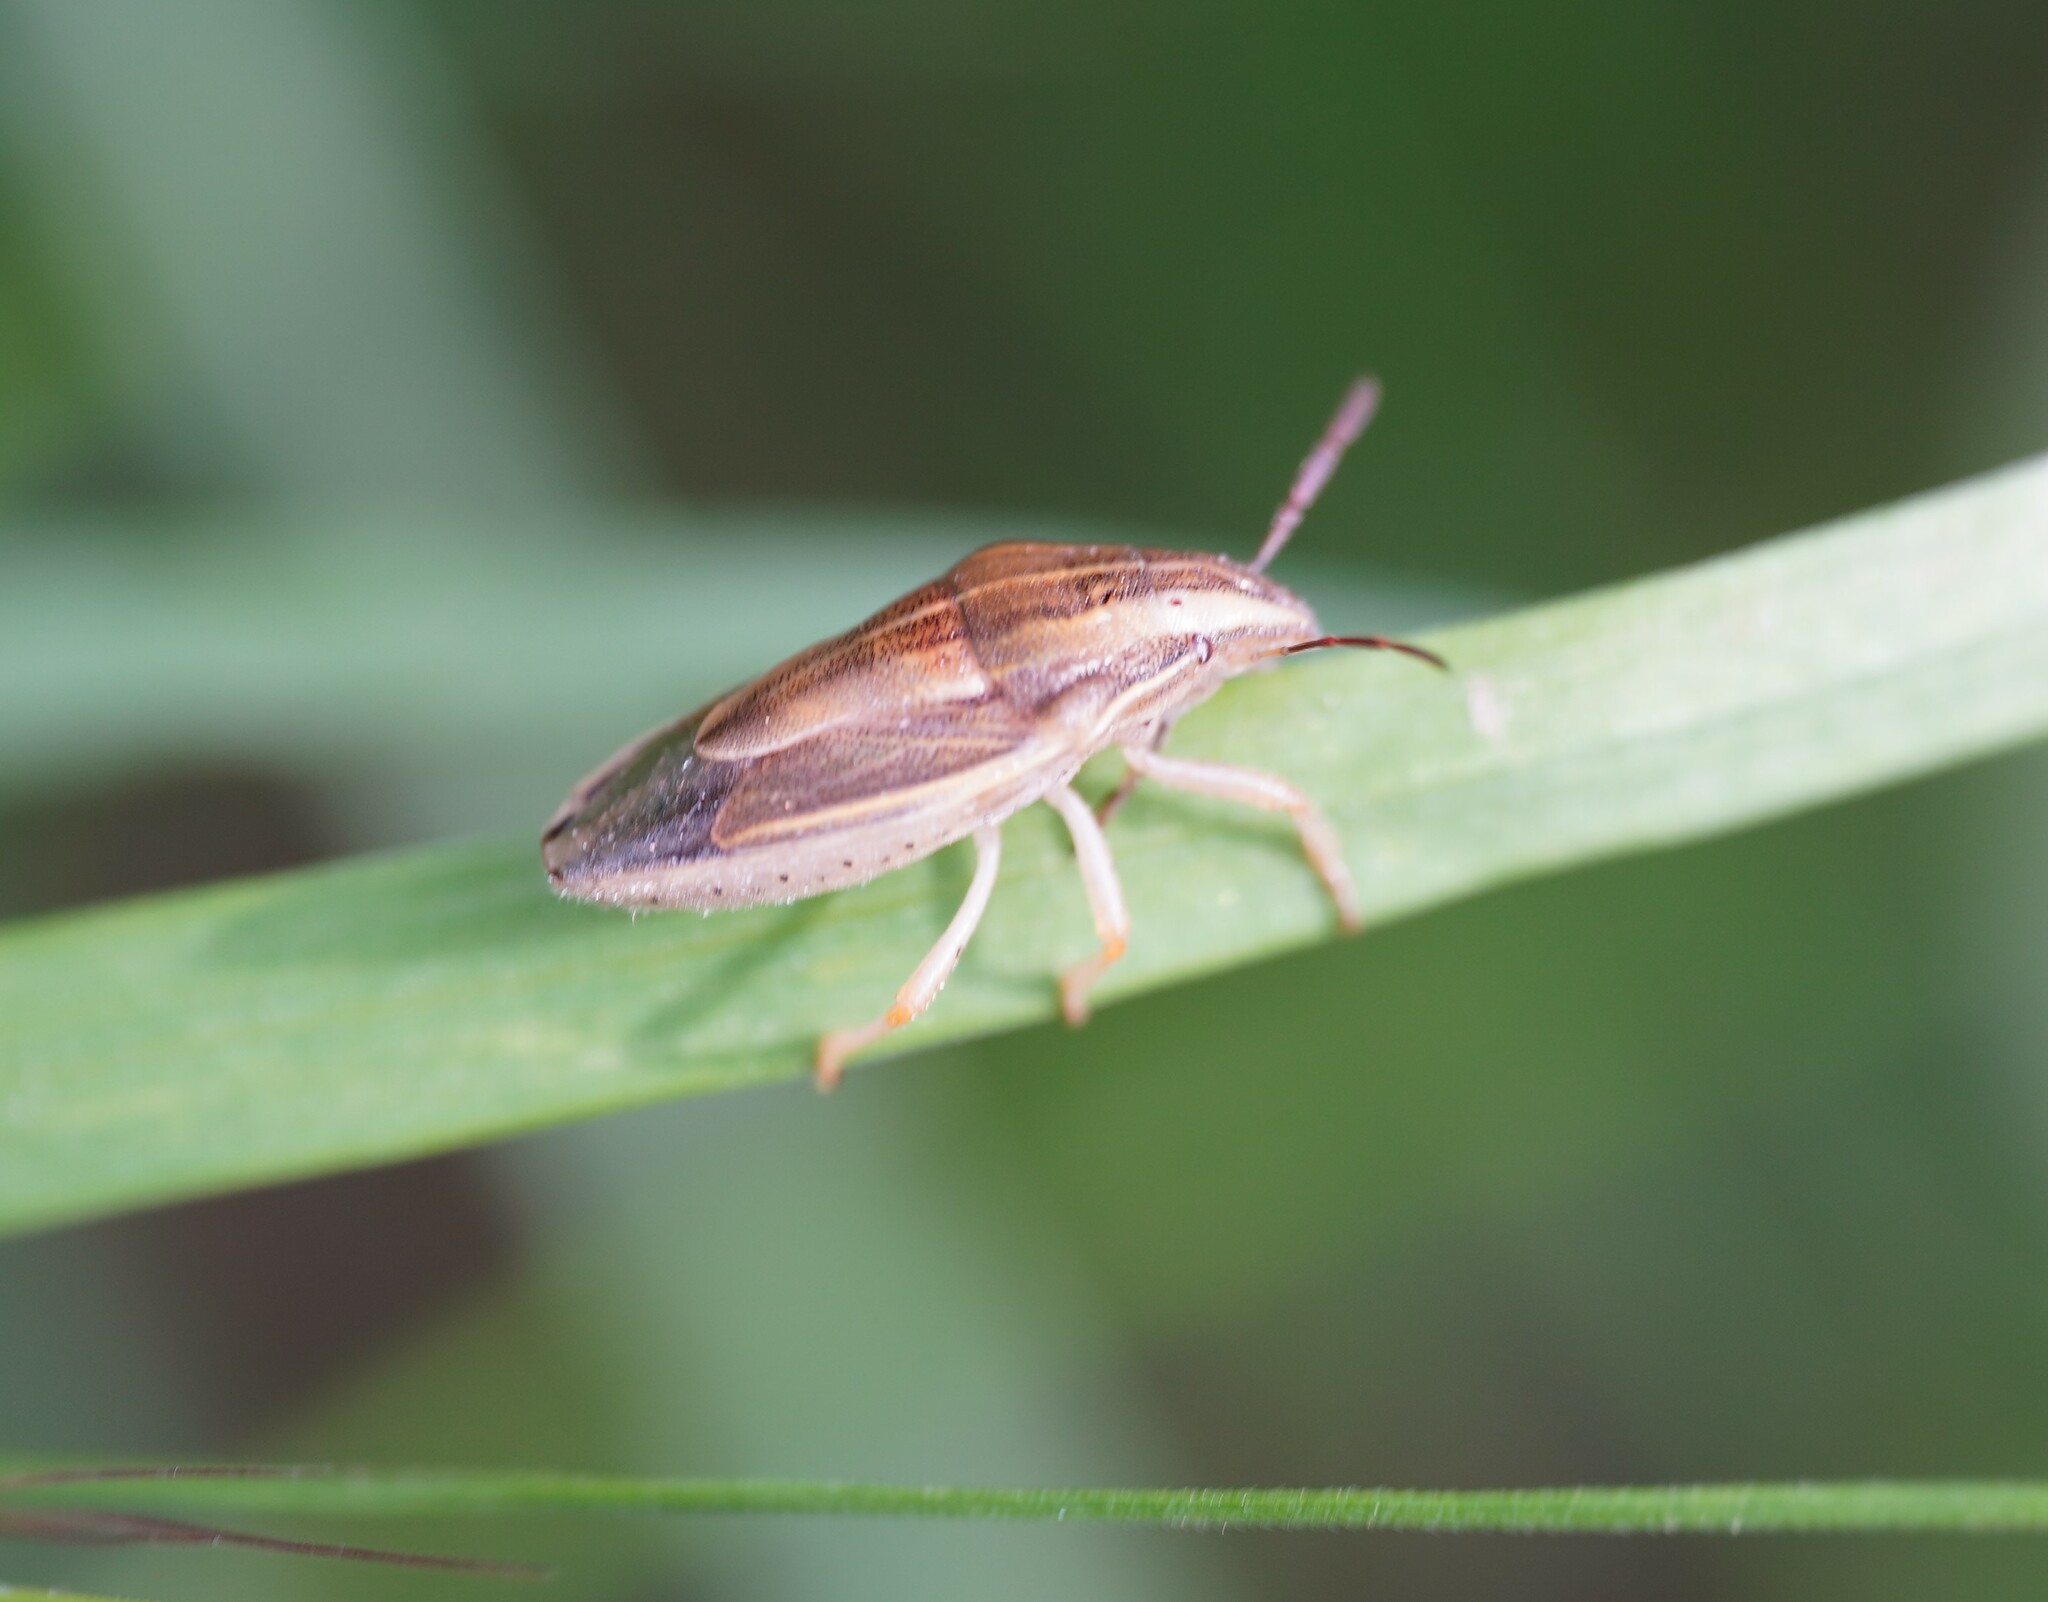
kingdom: Animalia
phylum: Arthropoda
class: Insecta
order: Hemiptera
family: Pentatomidae
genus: Aelia
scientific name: Aelia acuminata
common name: Bishop's mitre
